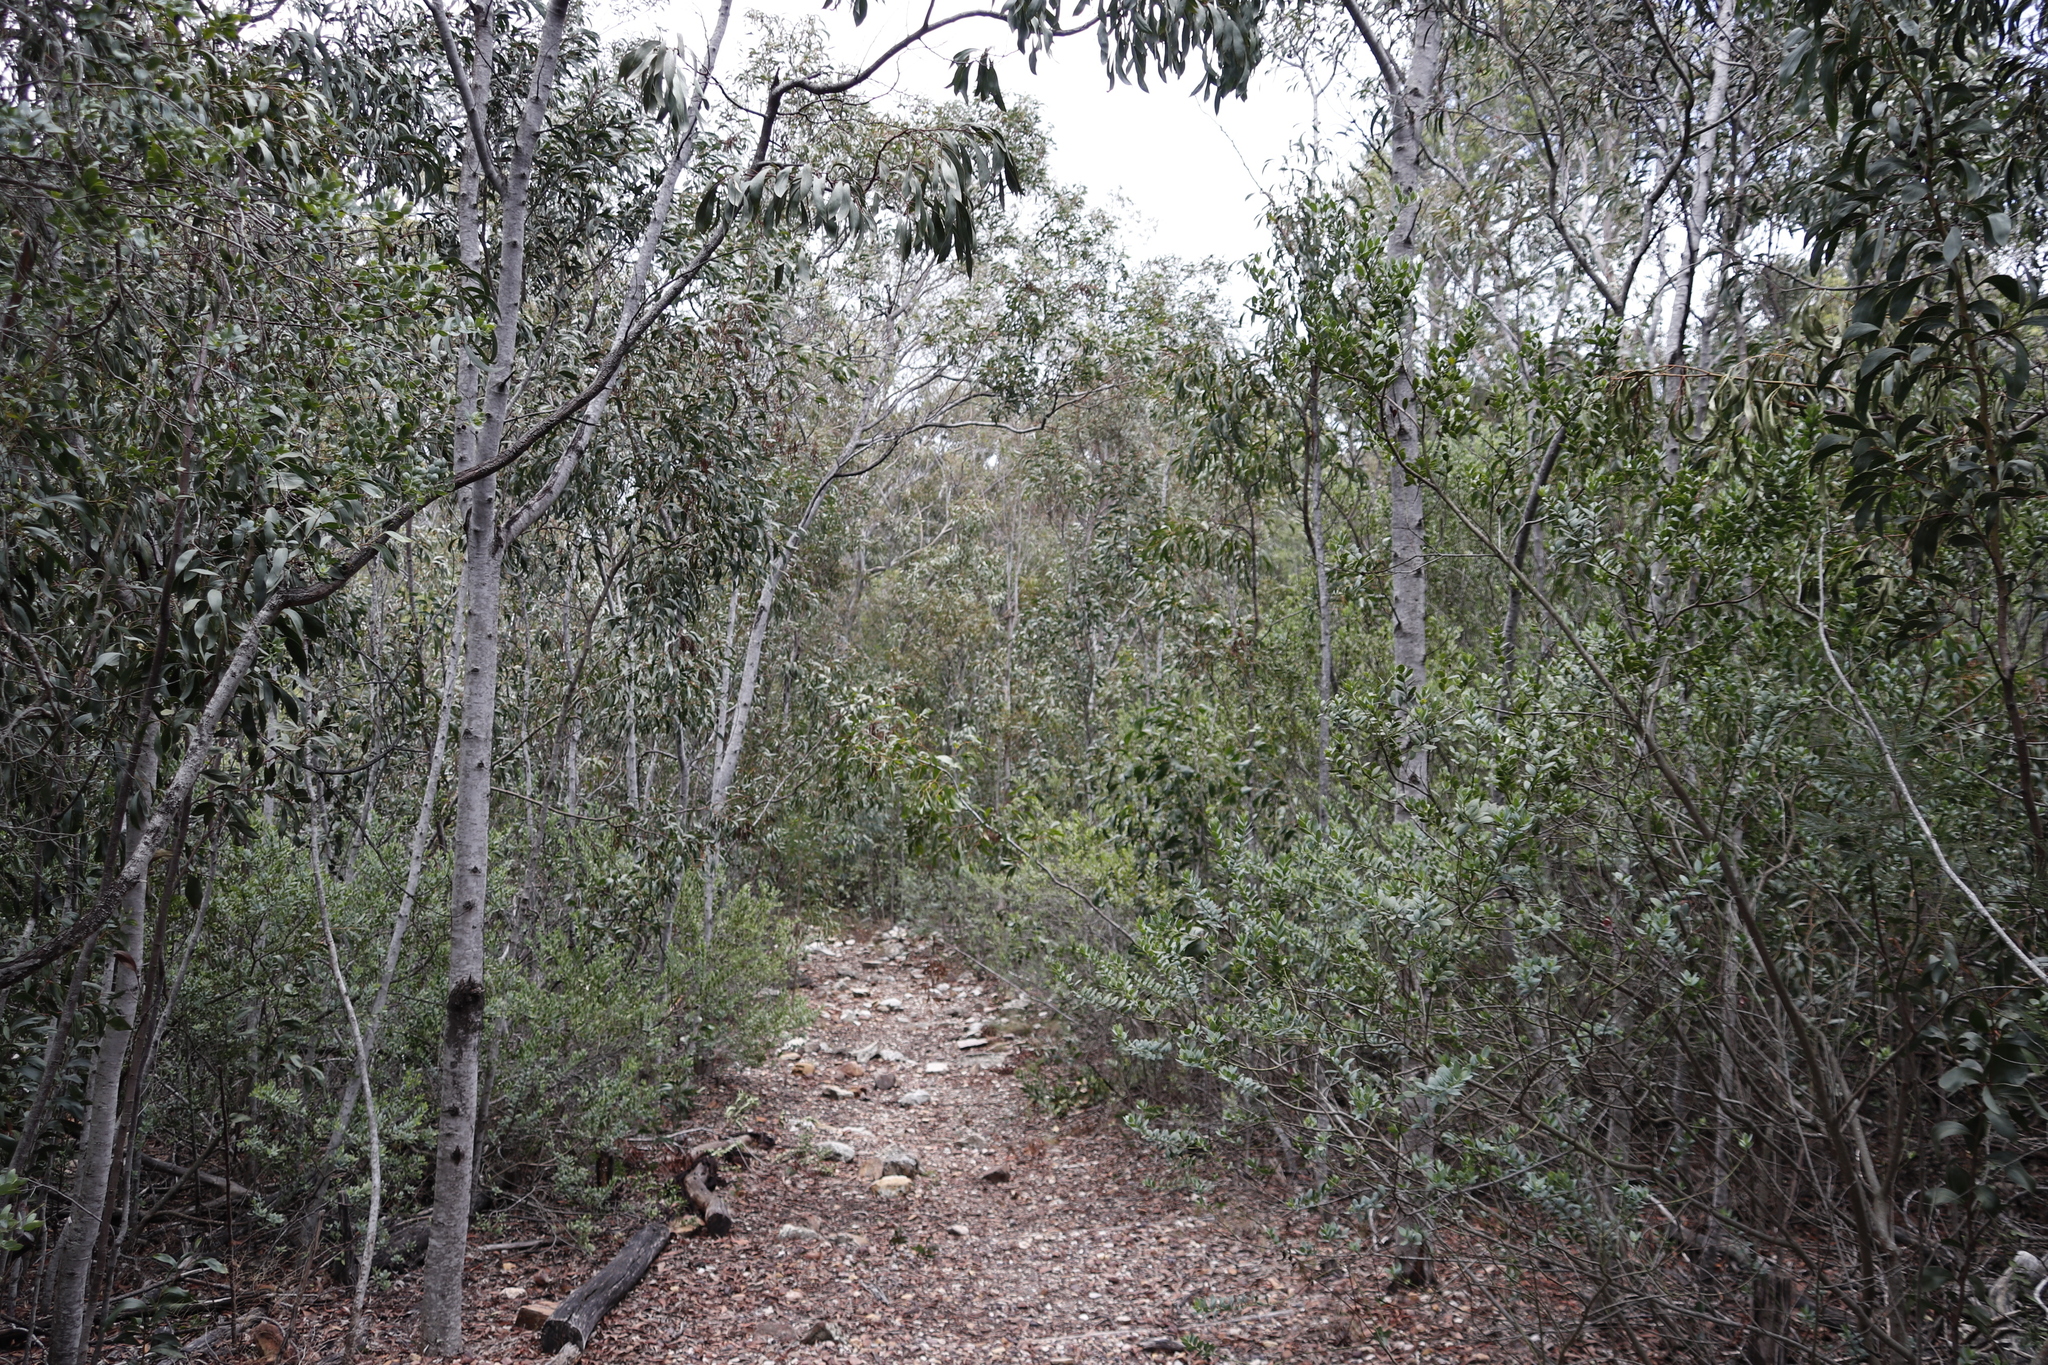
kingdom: Plantae
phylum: Tracheophyta
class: Magnoliopsida
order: Fabales
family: Fabaceae
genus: Acacia
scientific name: Acacia pycnantha
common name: Golden wattle
